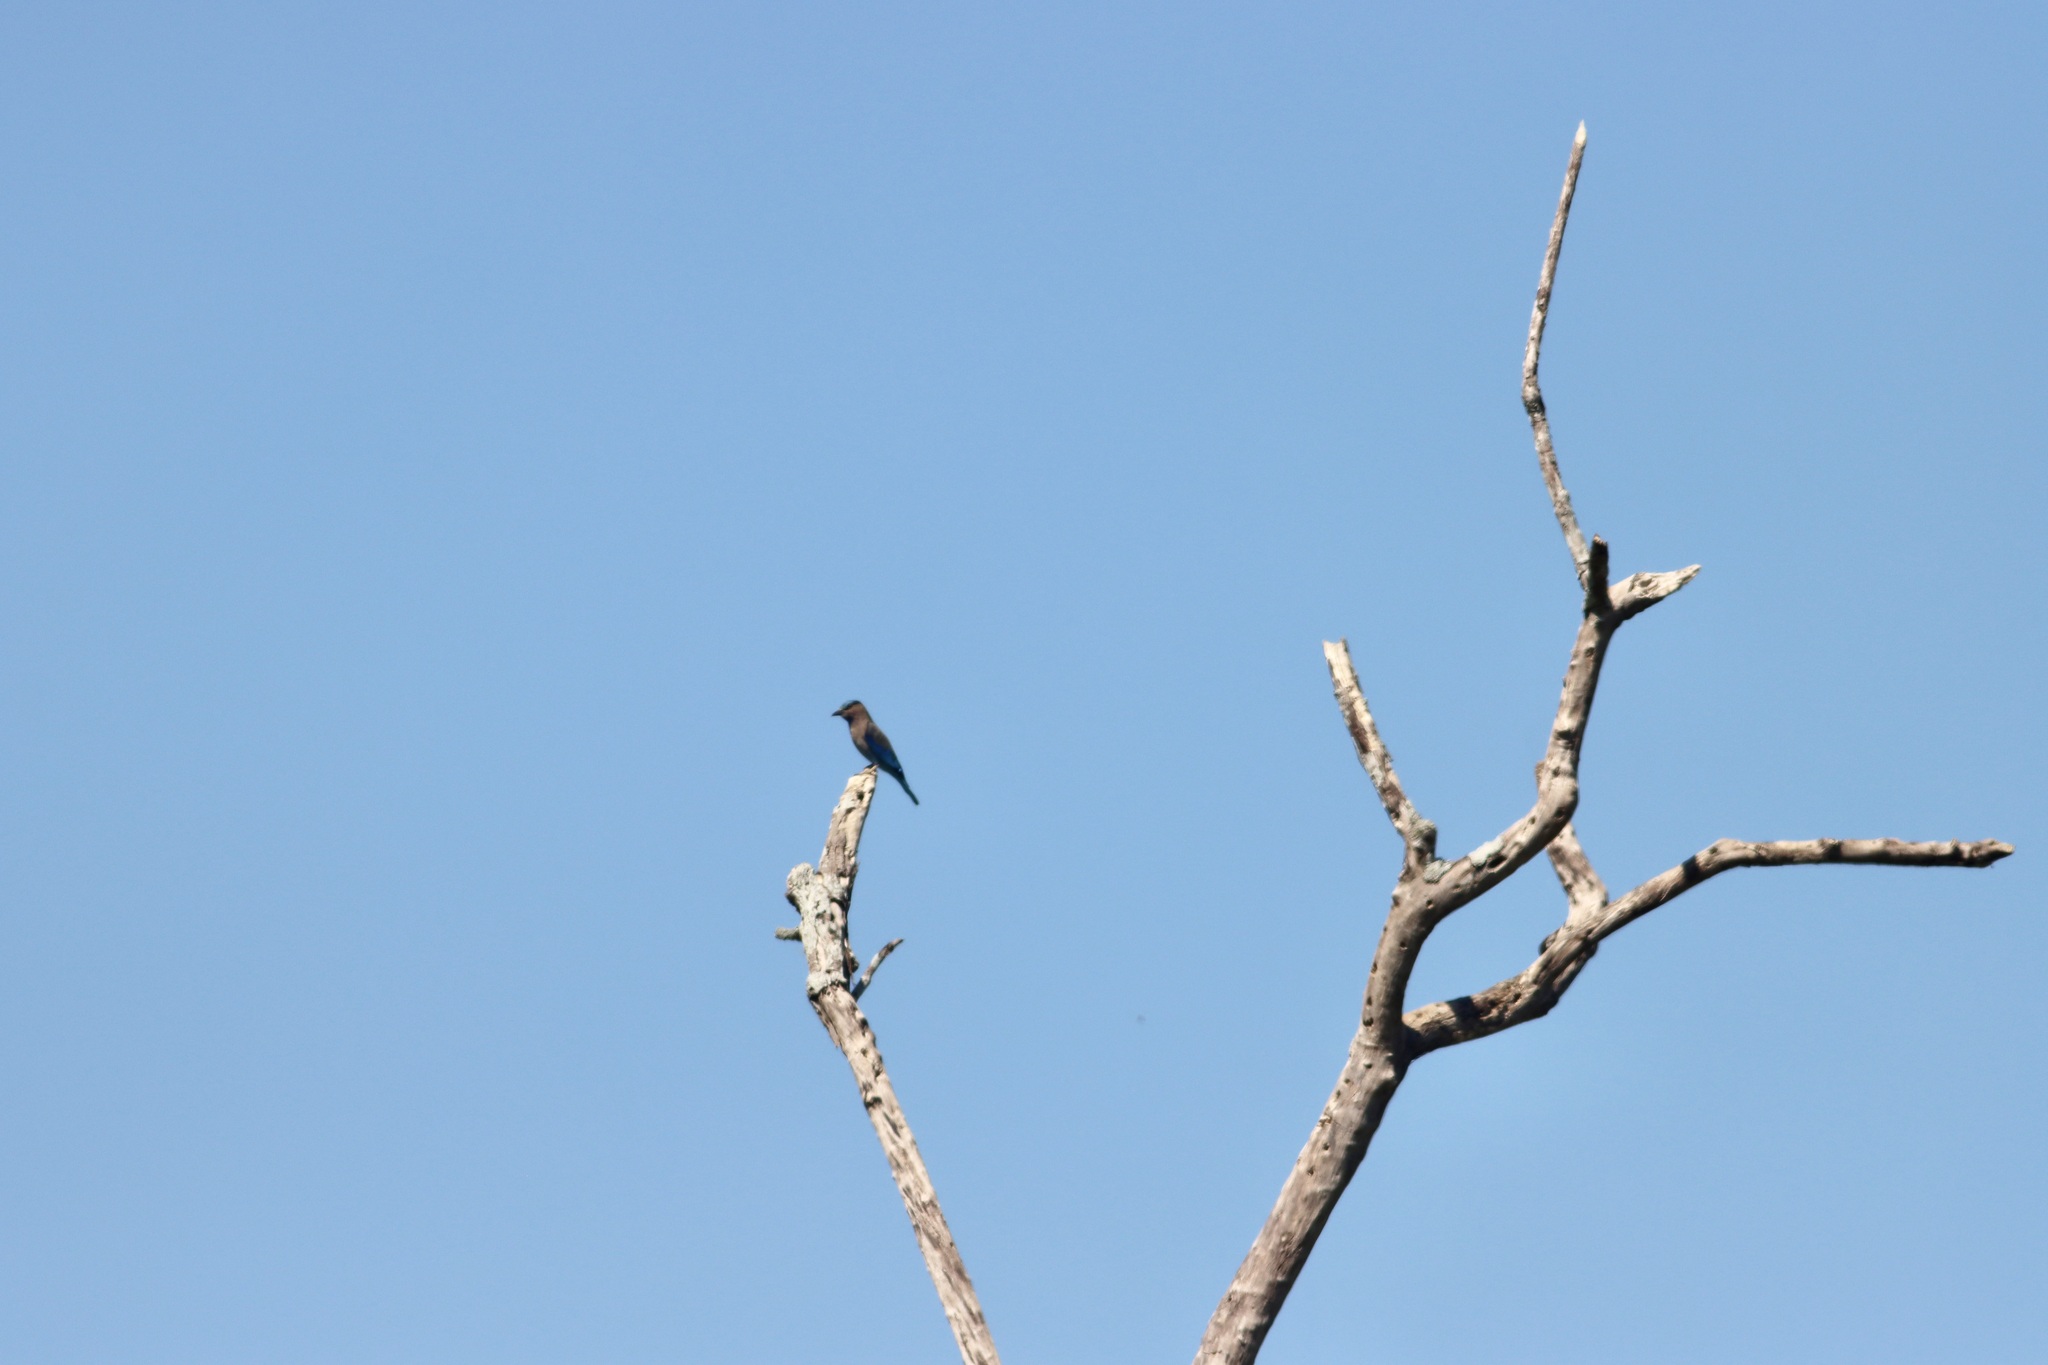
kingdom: Animalia
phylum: Chordata
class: Aves
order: Coraciiformes
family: Coraciidae
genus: Coracias
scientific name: Coracias affinis
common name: Indochinese roller
